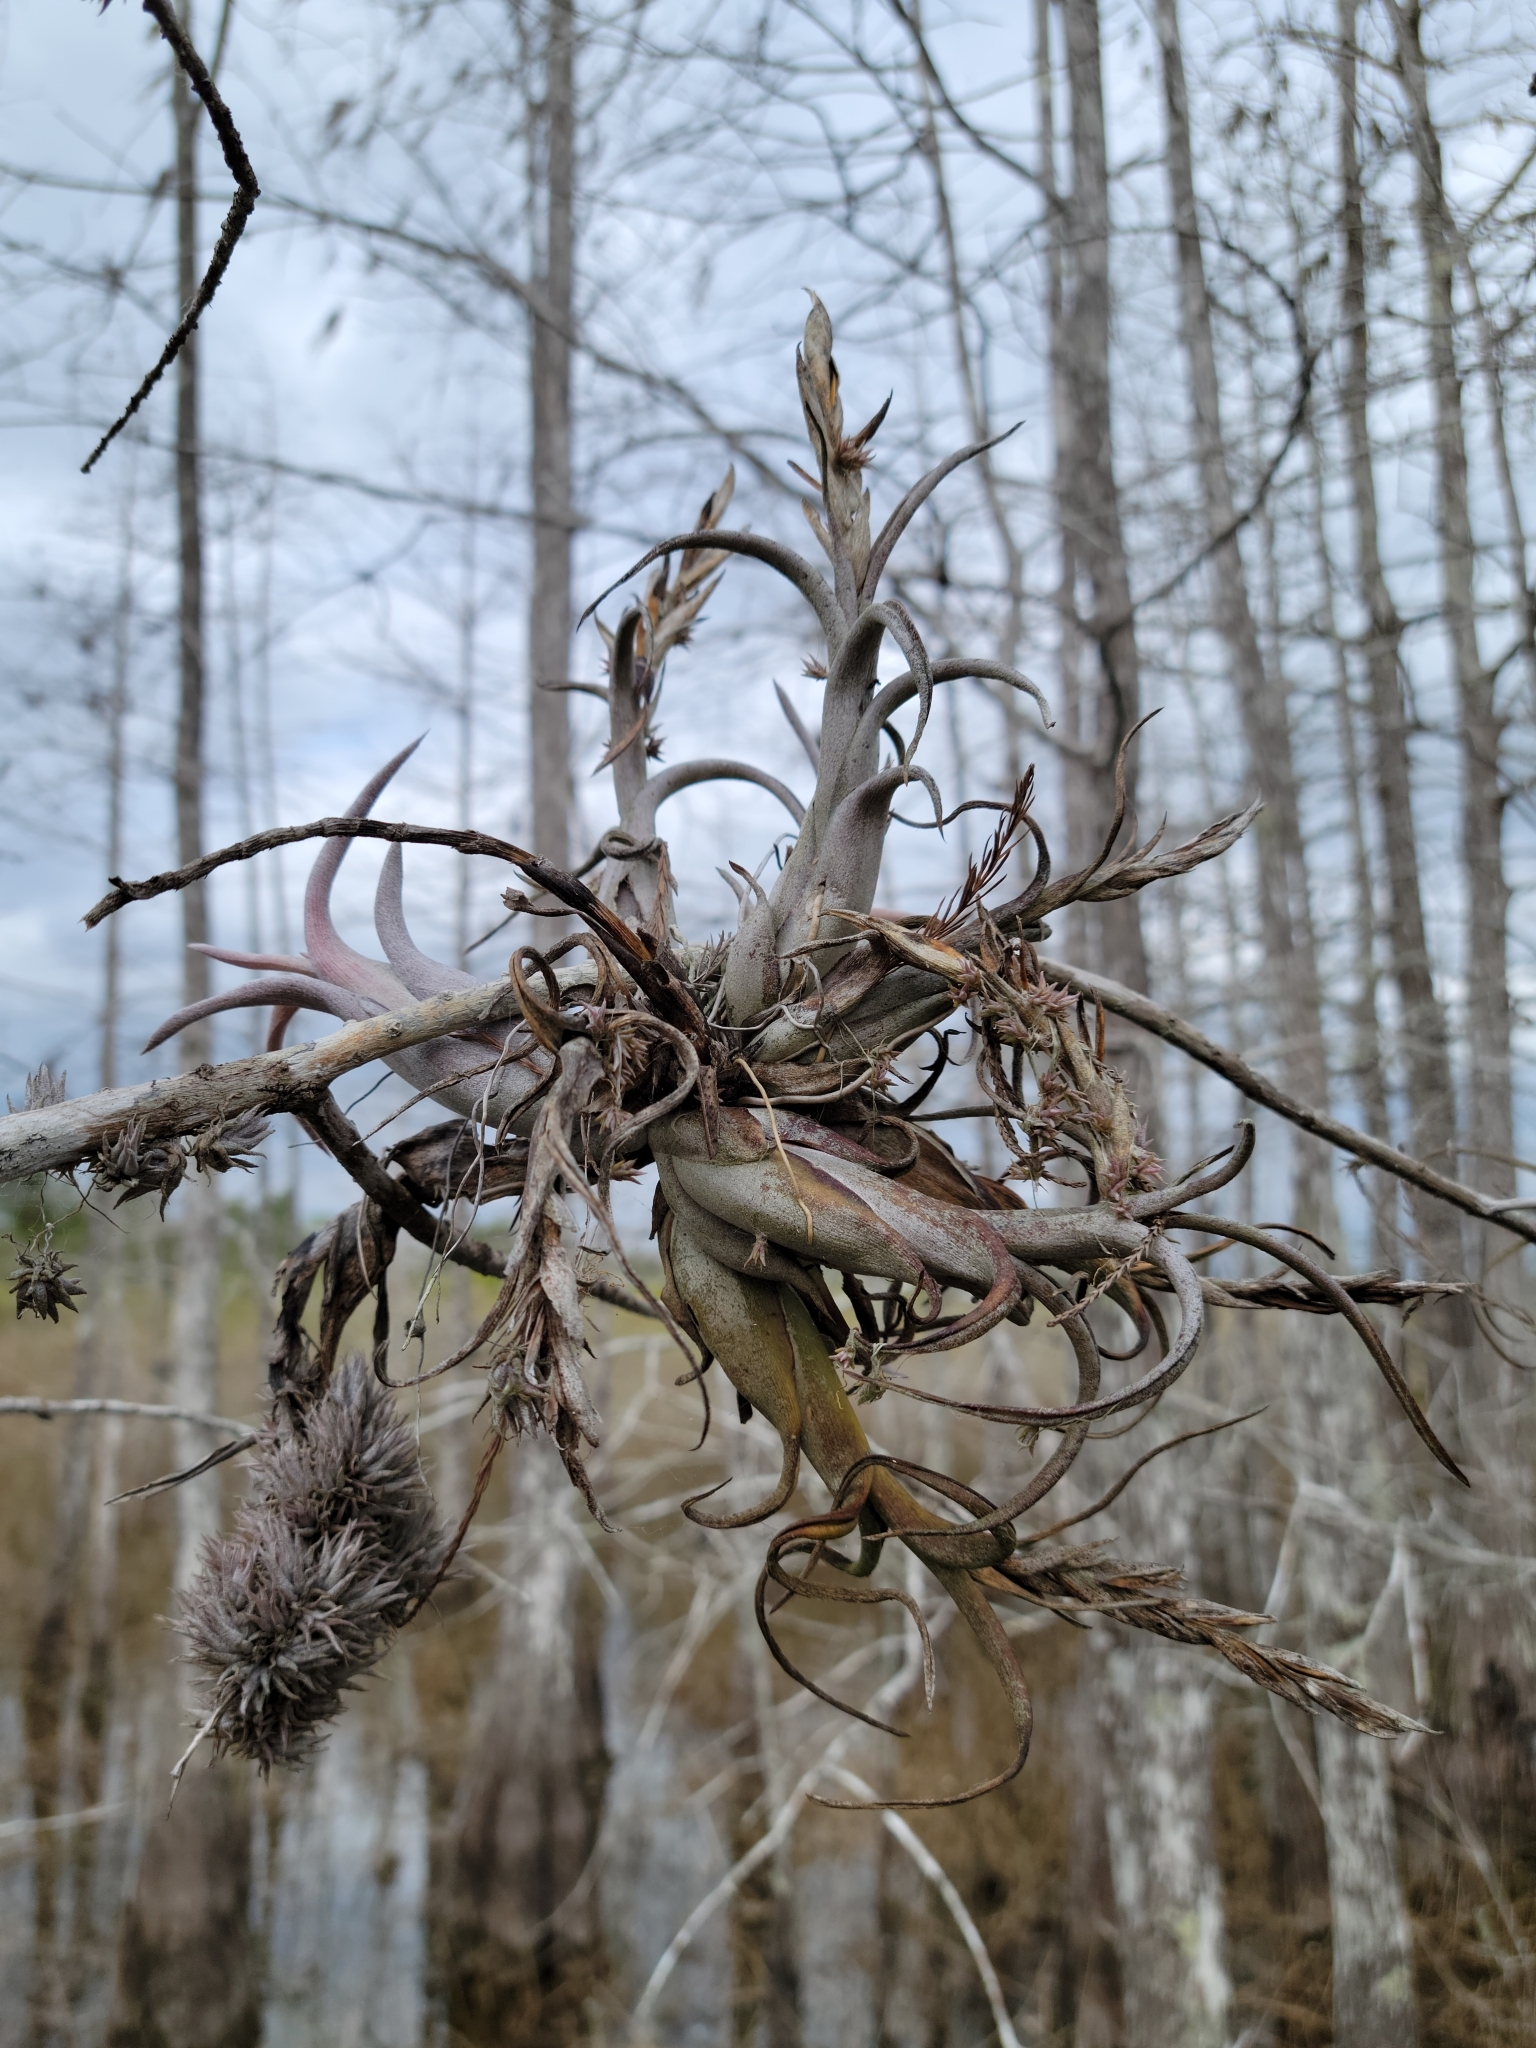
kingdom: Plantae
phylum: Tracheophyta
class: Liliopsida
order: Poales
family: Bromeliaceae
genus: Tillandsia
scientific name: Tillandsia paucifolia
